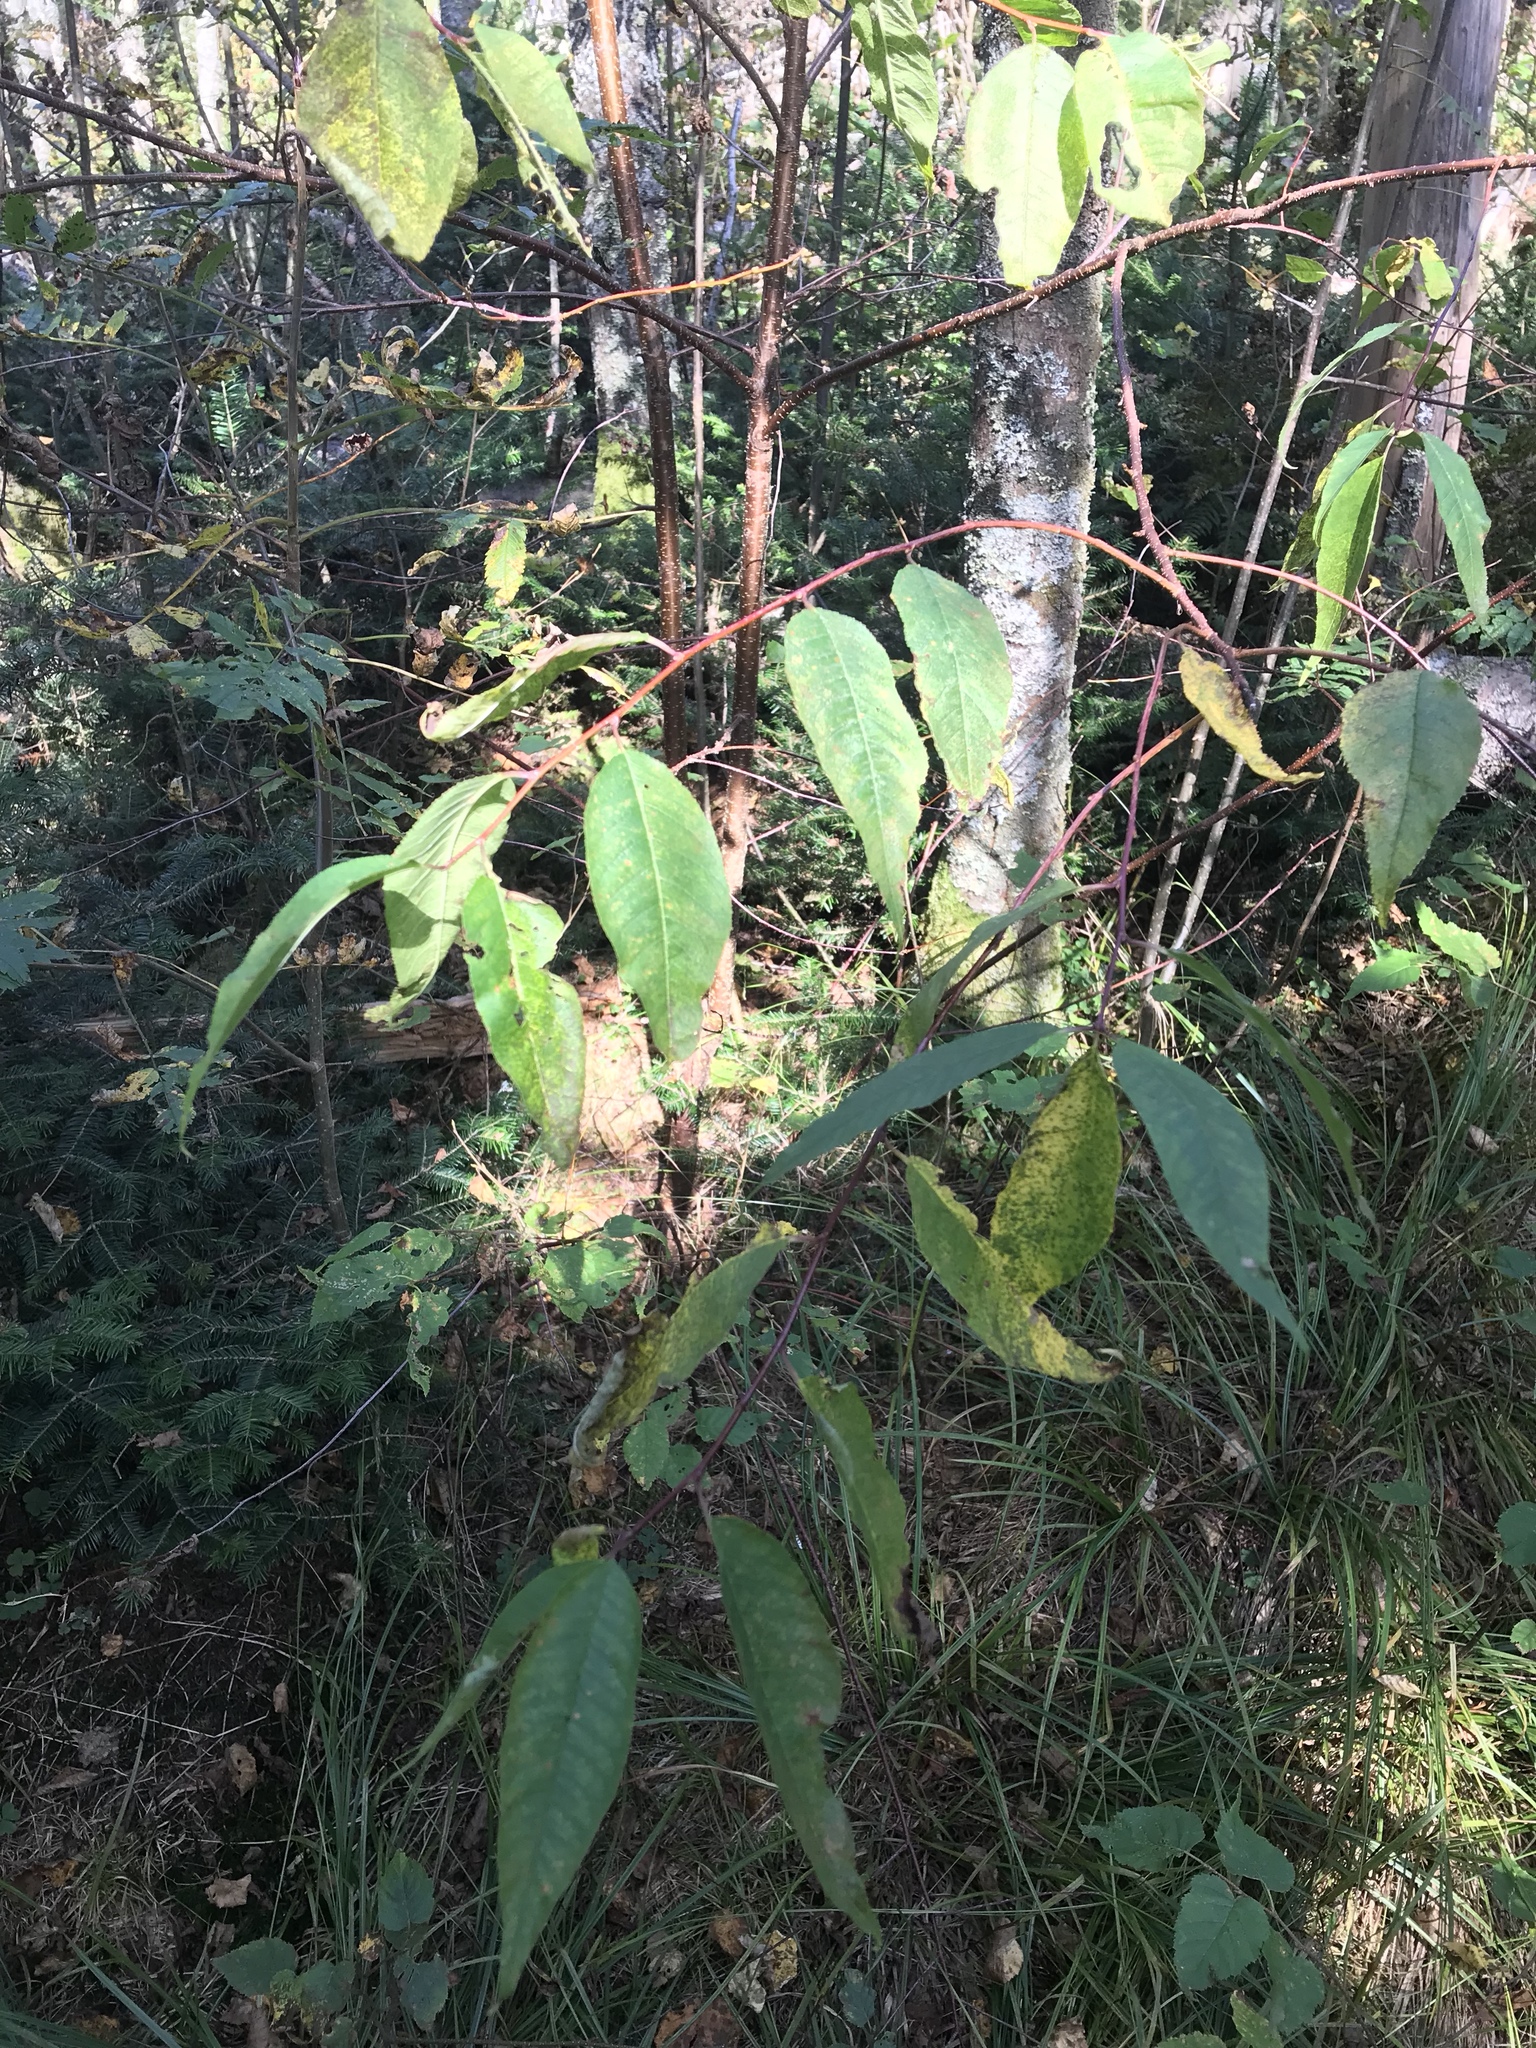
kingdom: Plantae
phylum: Tracheophyta
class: Magnoliopsida
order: Rosales
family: Rosaceae
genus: Prunus
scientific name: Prunus pensylvanica
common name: Pin cherry
